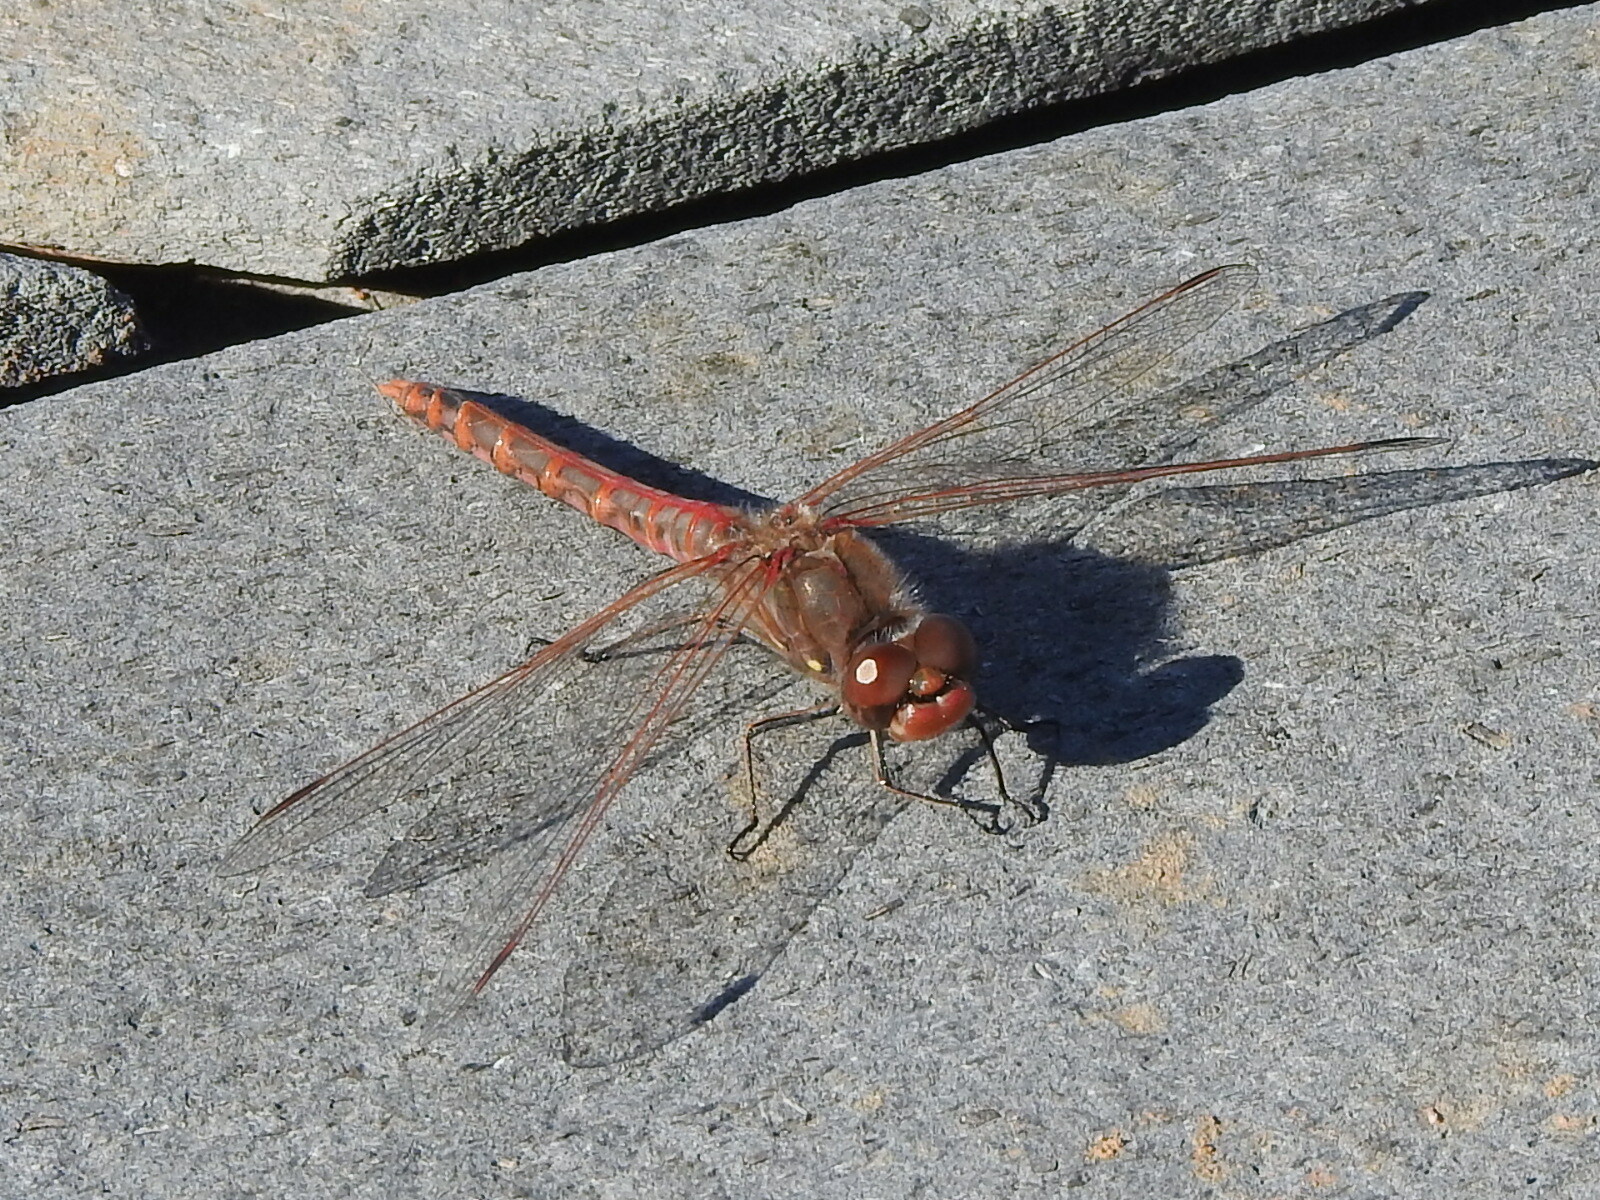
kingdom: Animalia
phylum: Arthropoda
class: Insecta
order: Odonata
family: Libellulidae
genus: Sympetrum
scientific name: Sympetrum corruptum
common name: Variegated meadowhawk
